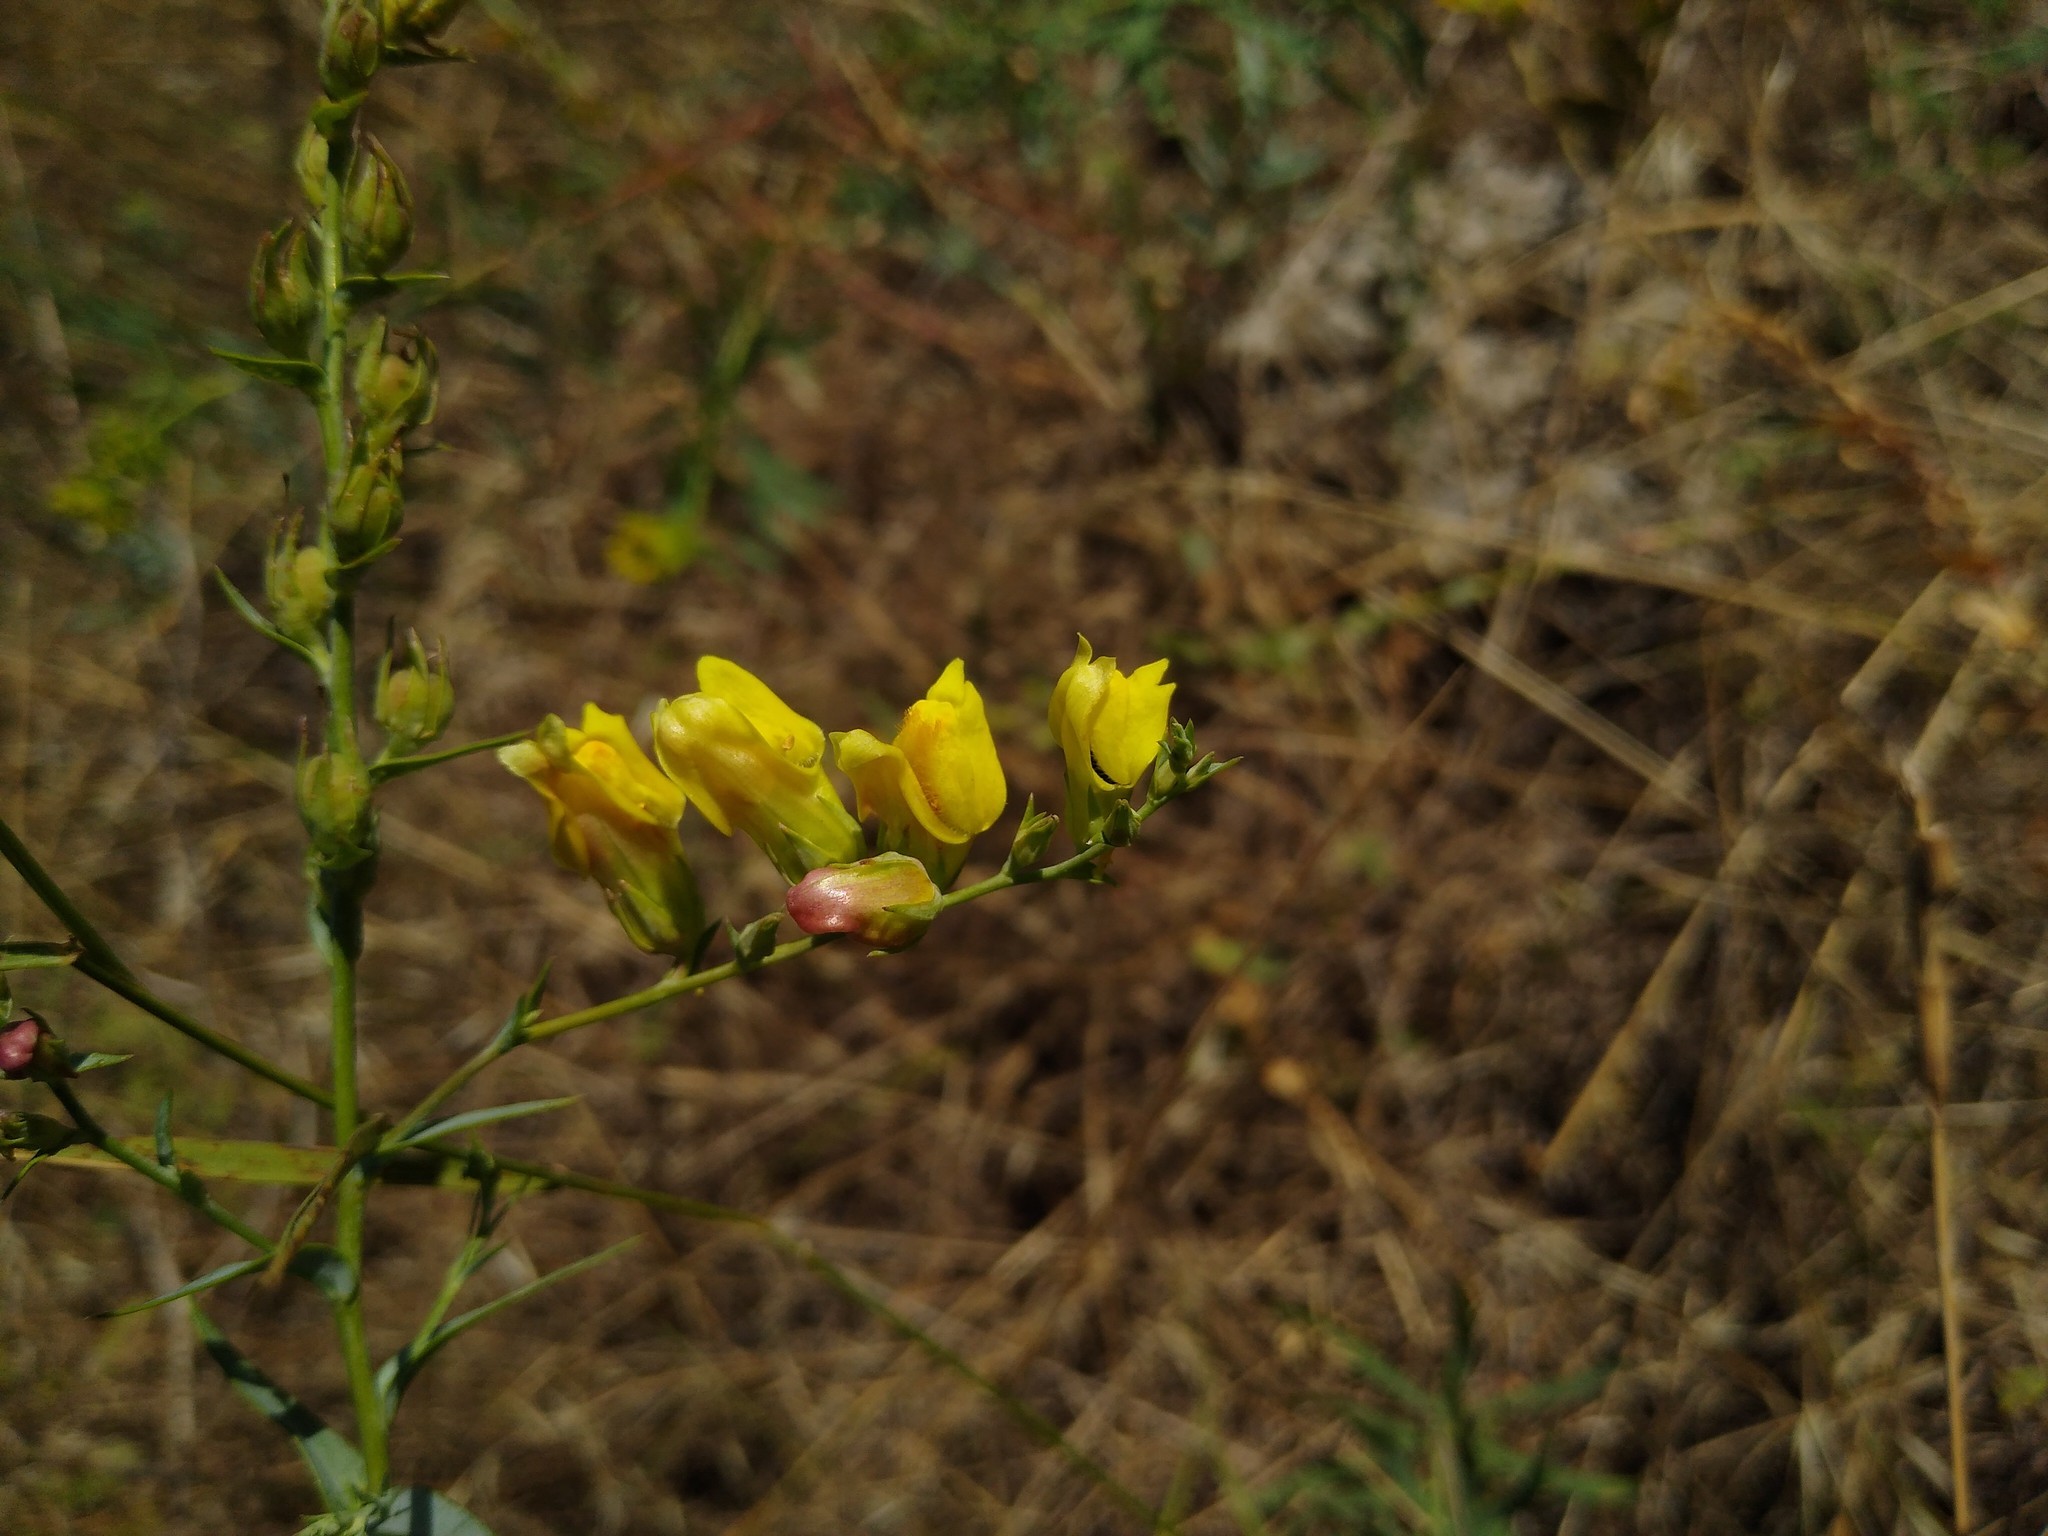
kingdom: Plantae
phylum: Tracheophyta
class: Magnoliopsida
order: Lamiales
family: Plantaginaceae
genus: Linaria
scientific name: Linaria genistifolia
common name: Broomleaf toadflax
